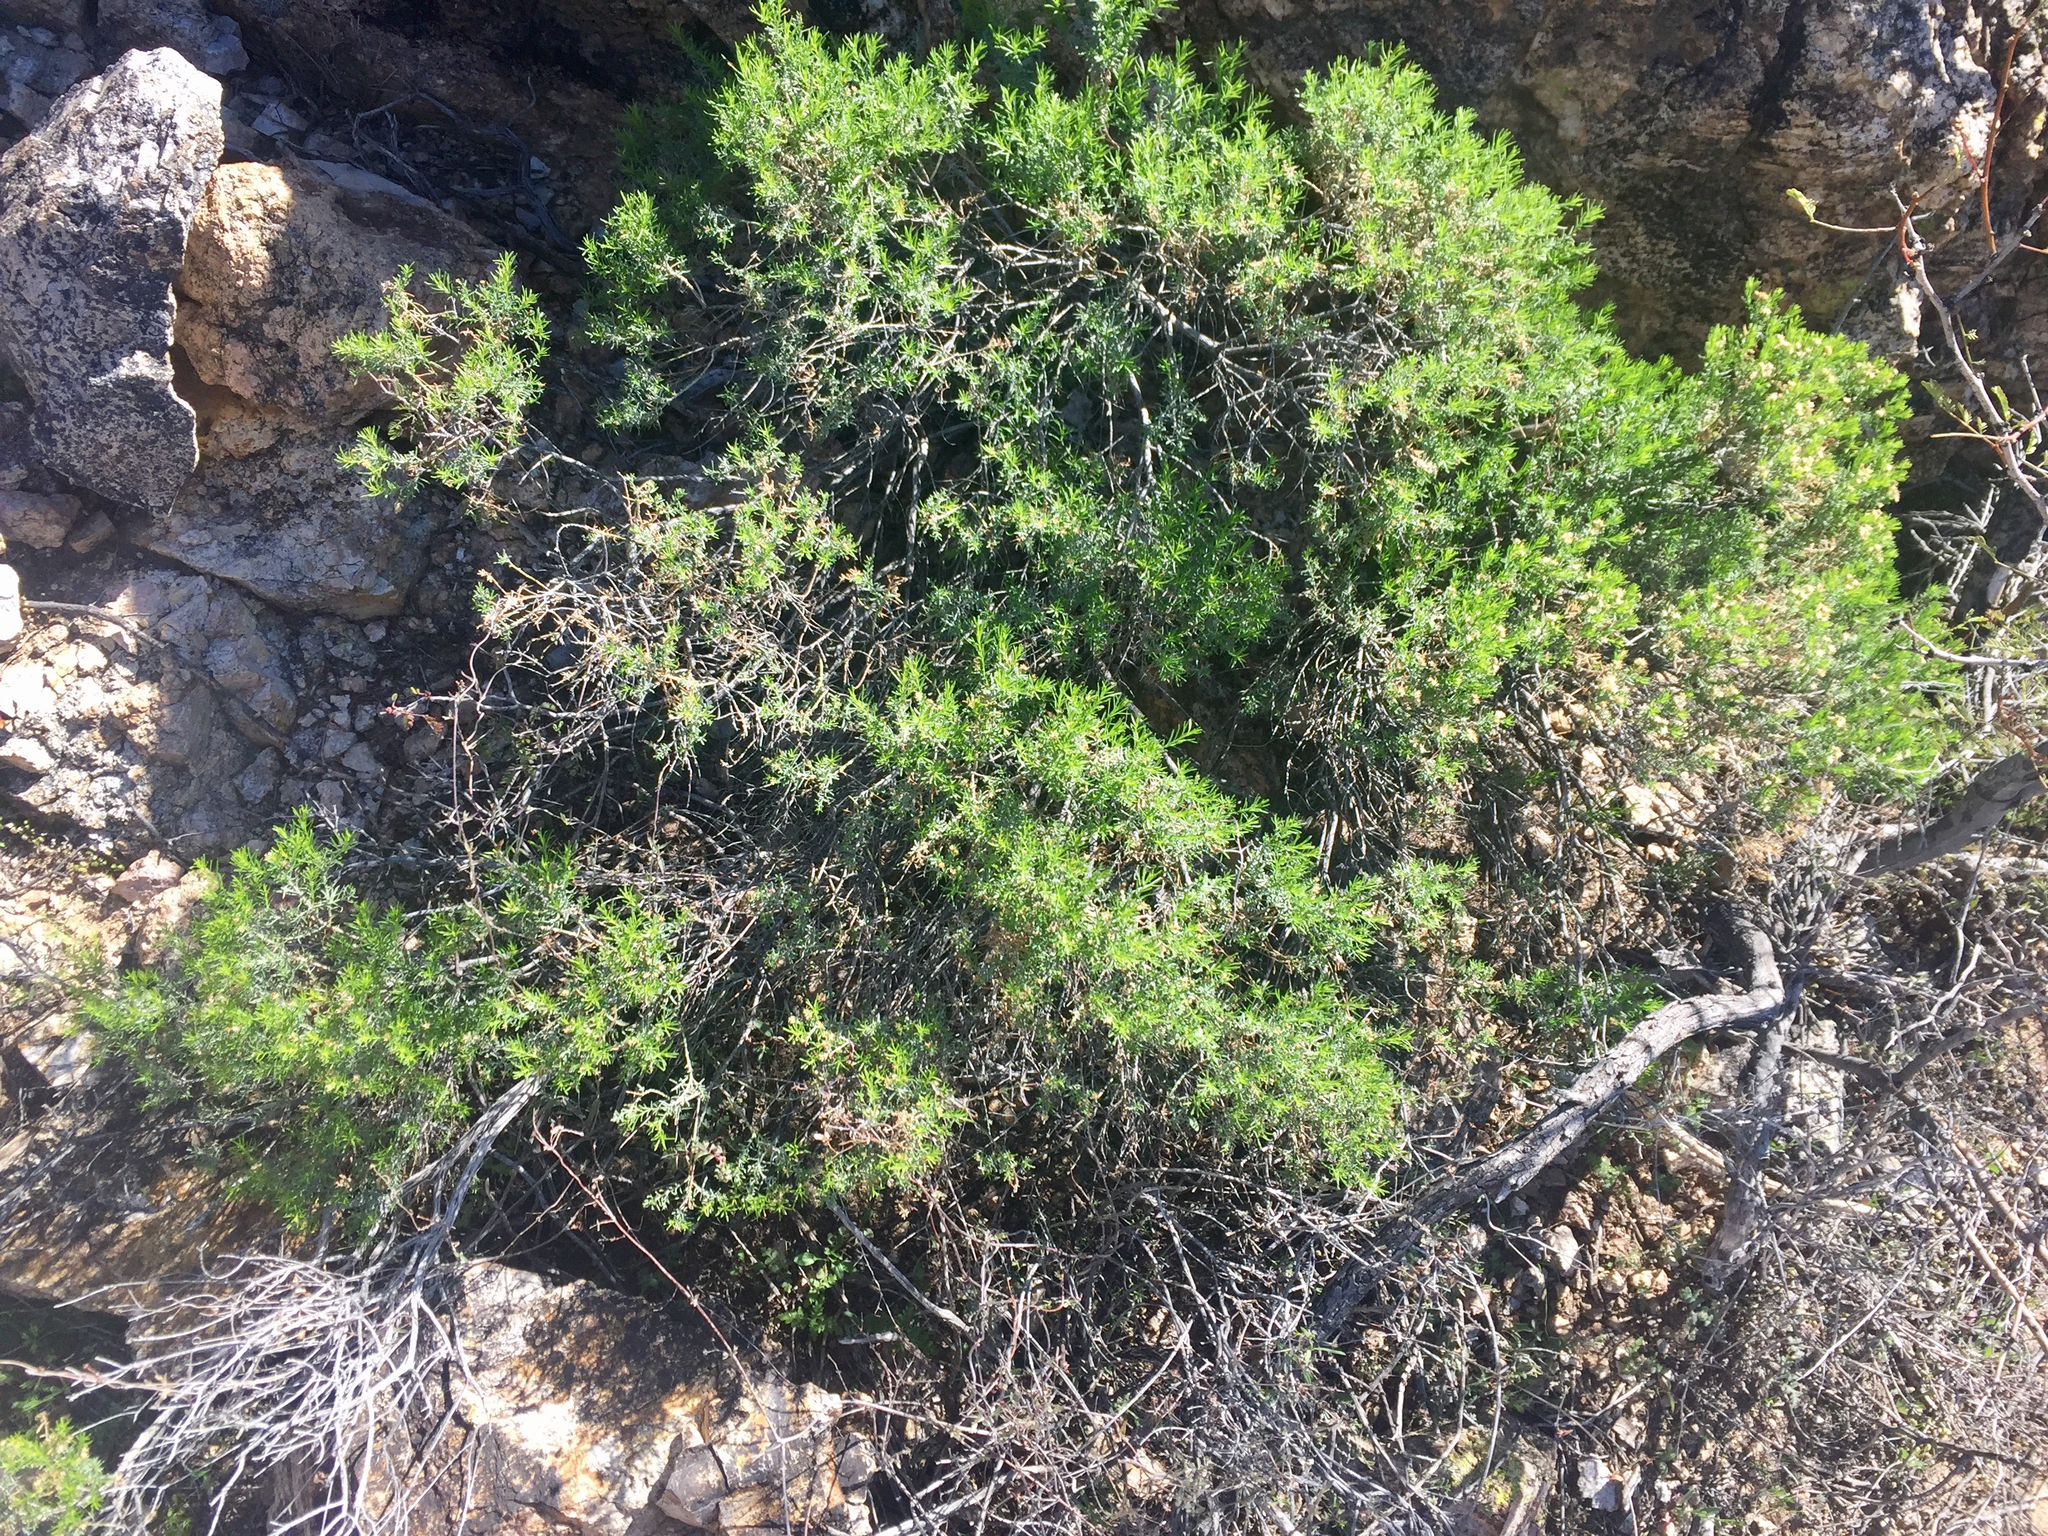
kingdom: Plantae
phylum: Tracheophyta
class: Magnoliopsida
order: Asterales
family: Asteraceae
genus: Ericameria
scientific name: Ericameria laricifolia
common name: Turpentine-bush
